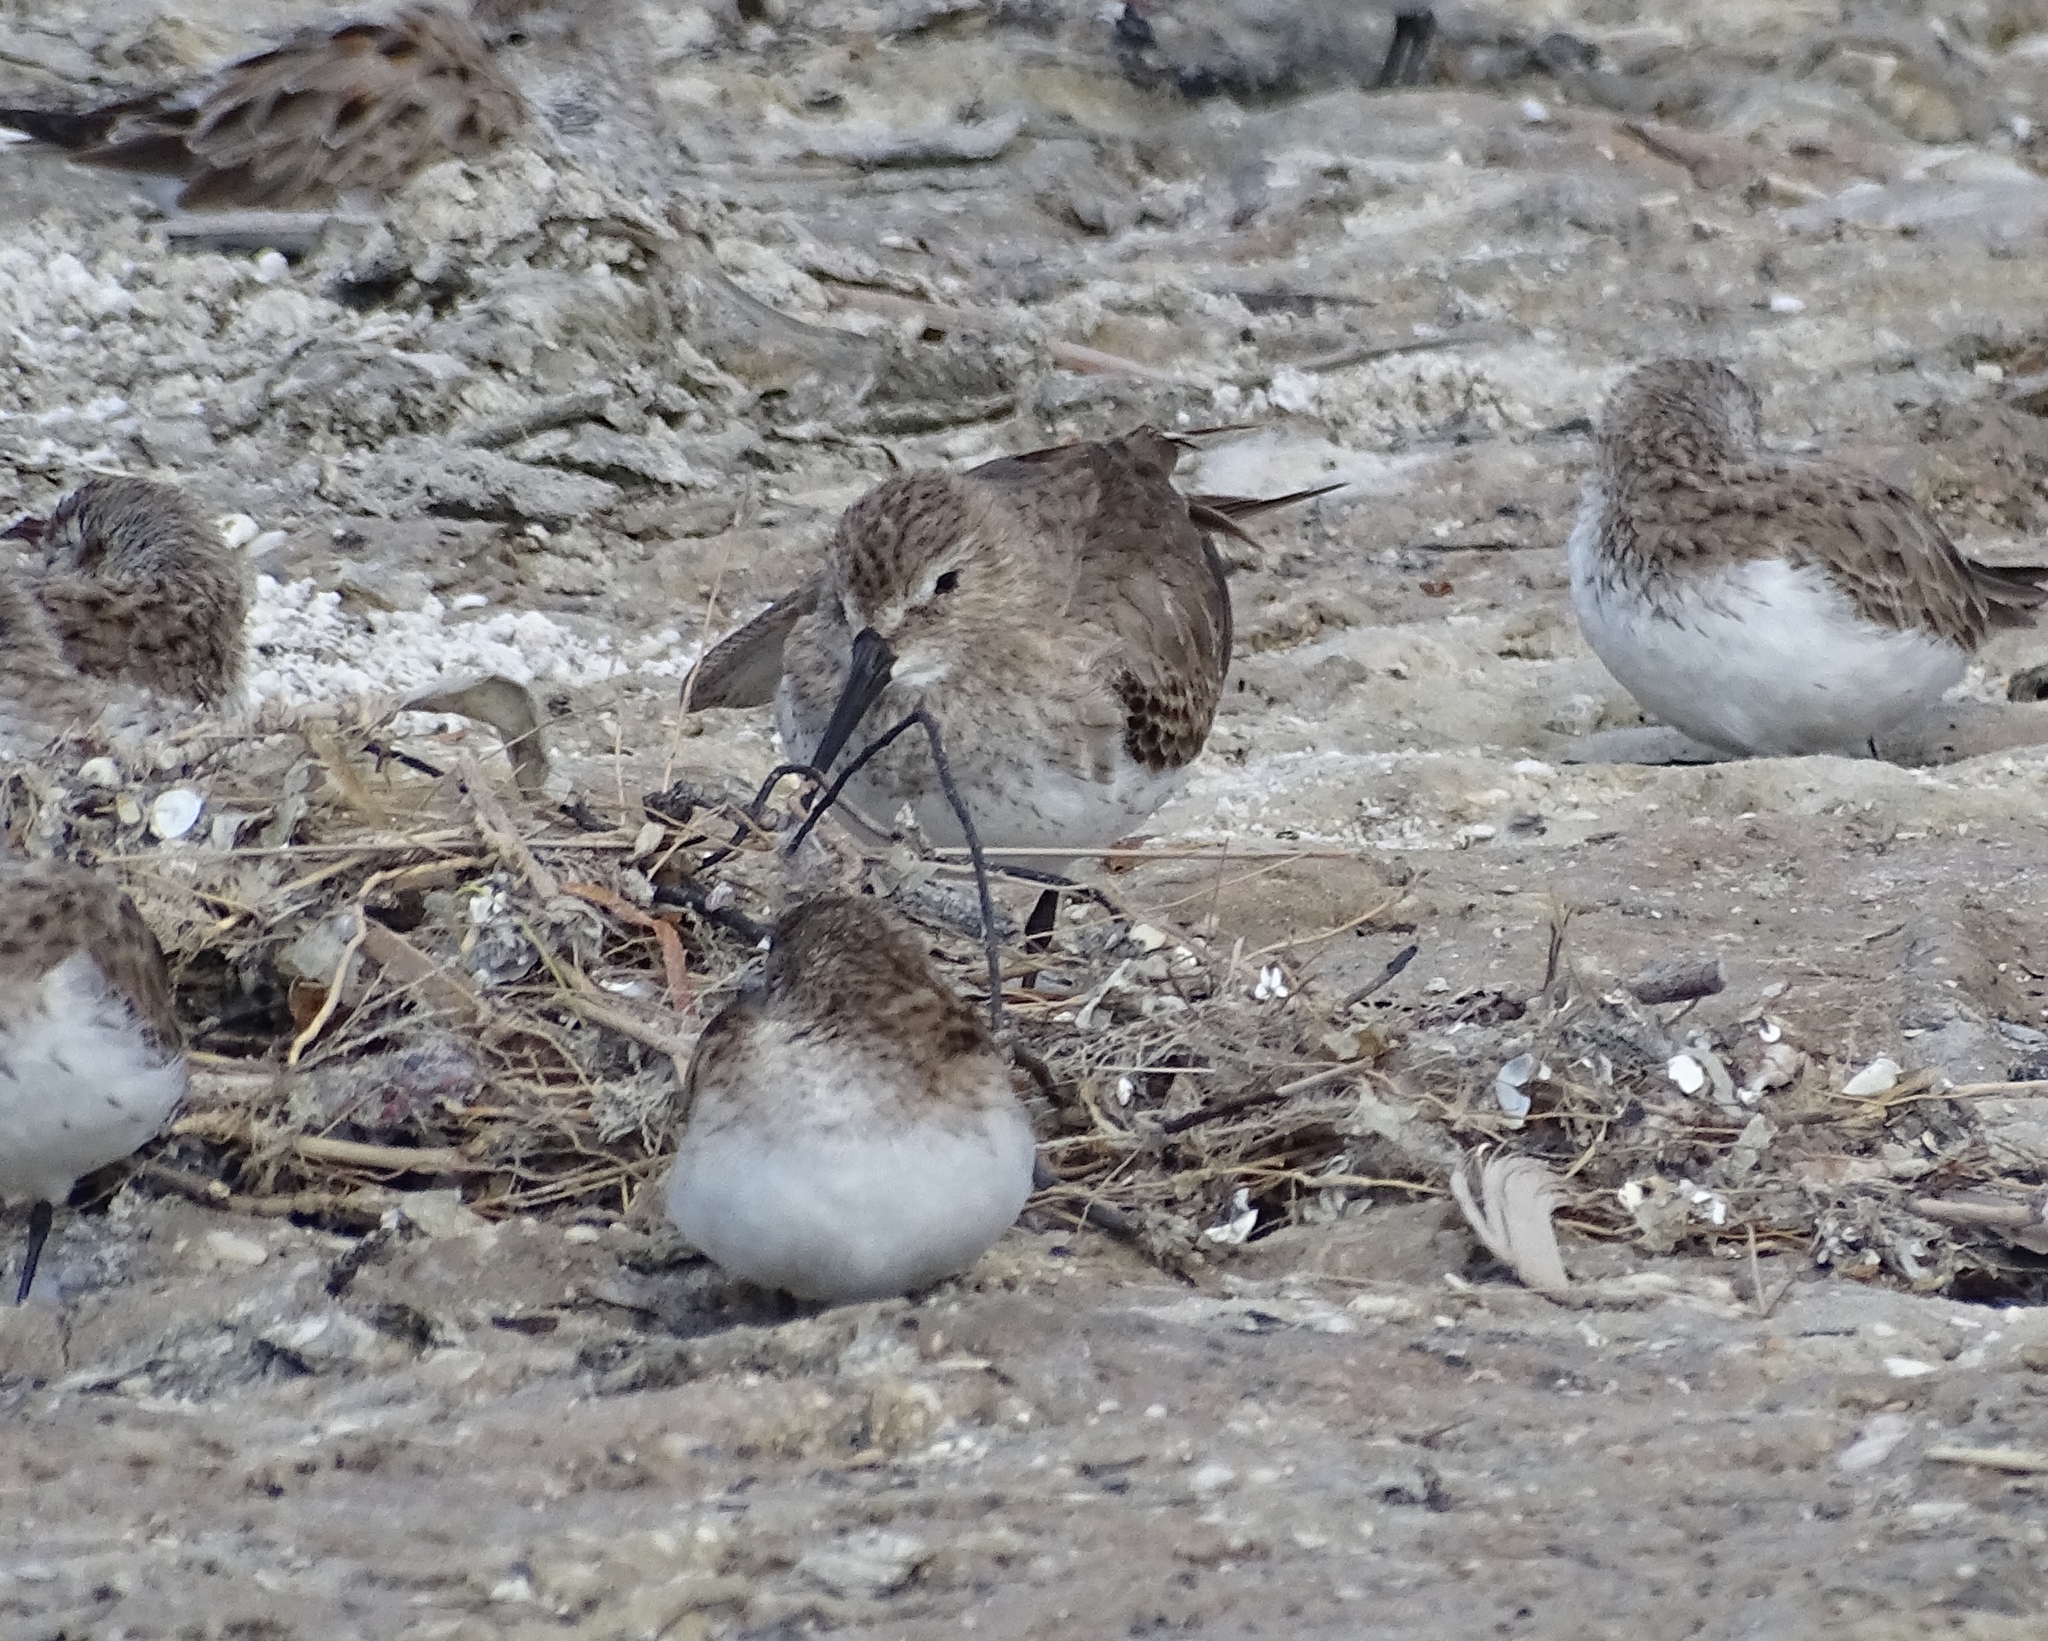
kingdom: Animalia
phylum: Chordata
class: Aves
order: Charadriiformes
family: Scolopacidae
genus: Calidris
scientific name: Calidris alpina
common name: Dunlin
